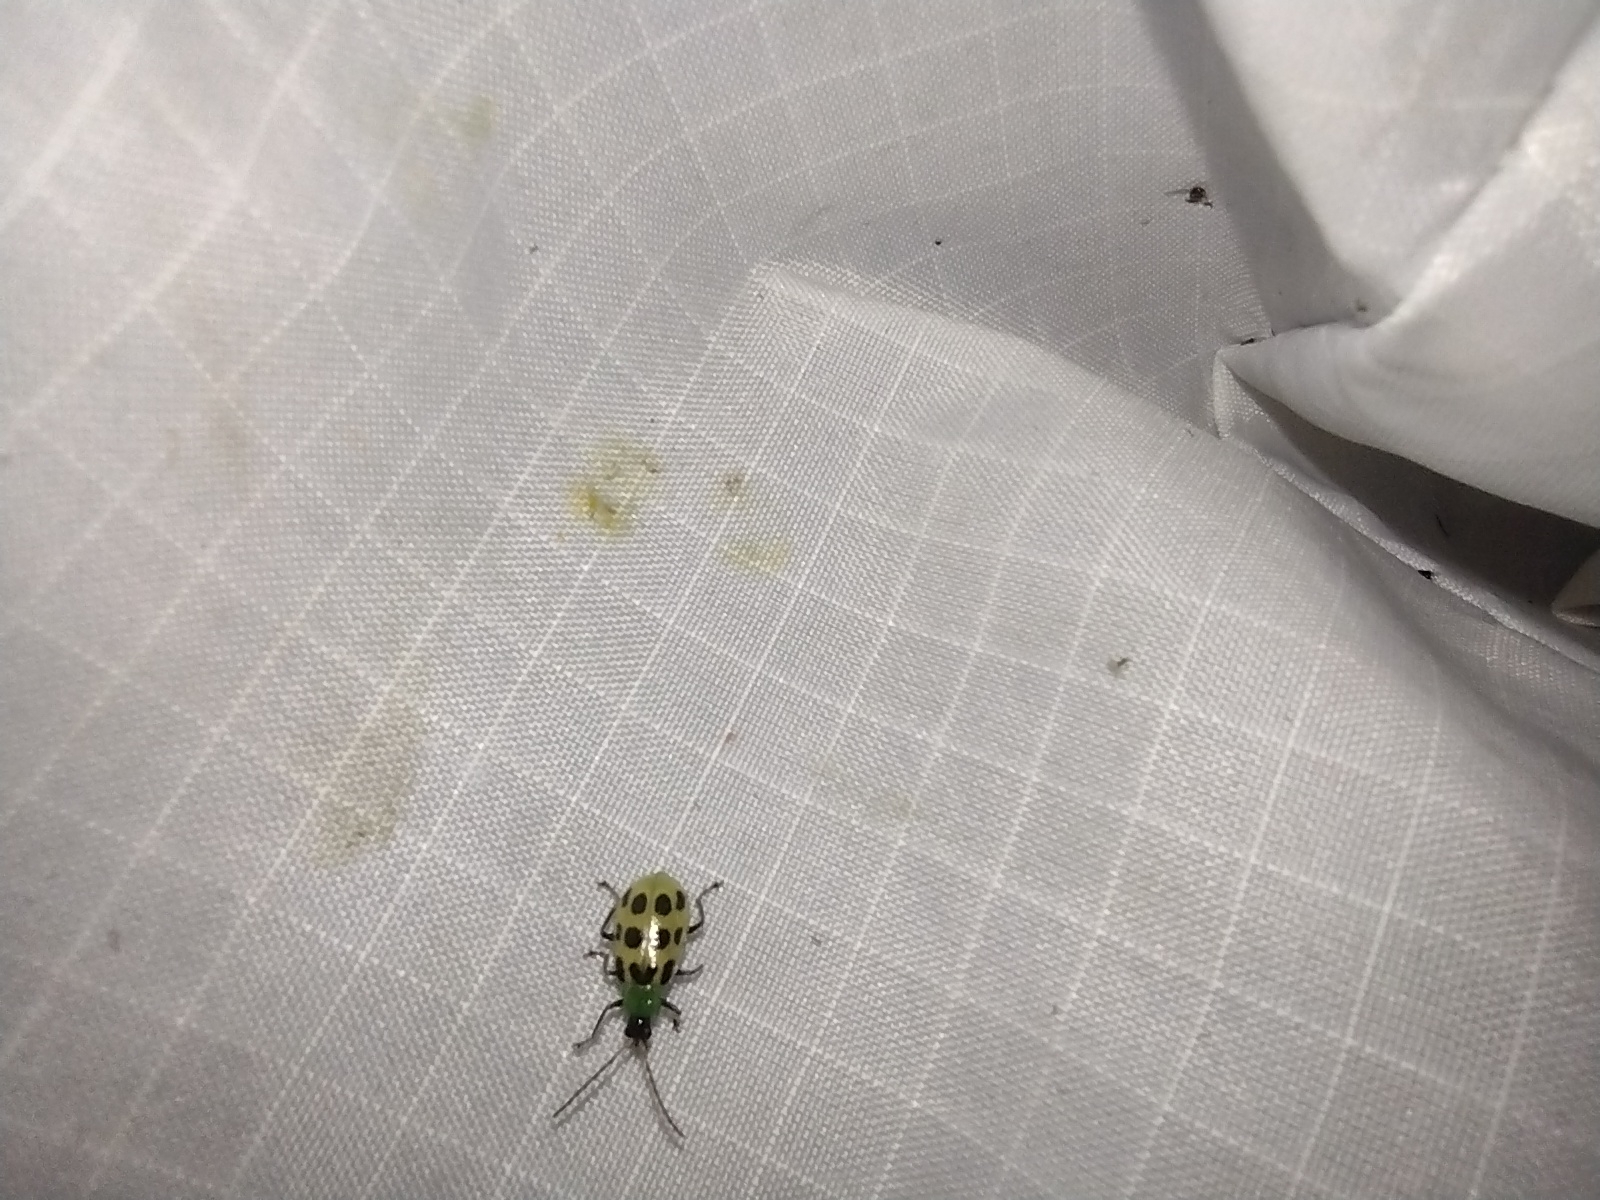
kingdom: Animalia
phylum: Arthropoda
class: Insecta
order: Coleoptera
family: Chrysomelidae
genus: Diabrotica
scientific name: Diabrotica undecimpunctata
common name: Spotted cucumber beetle
